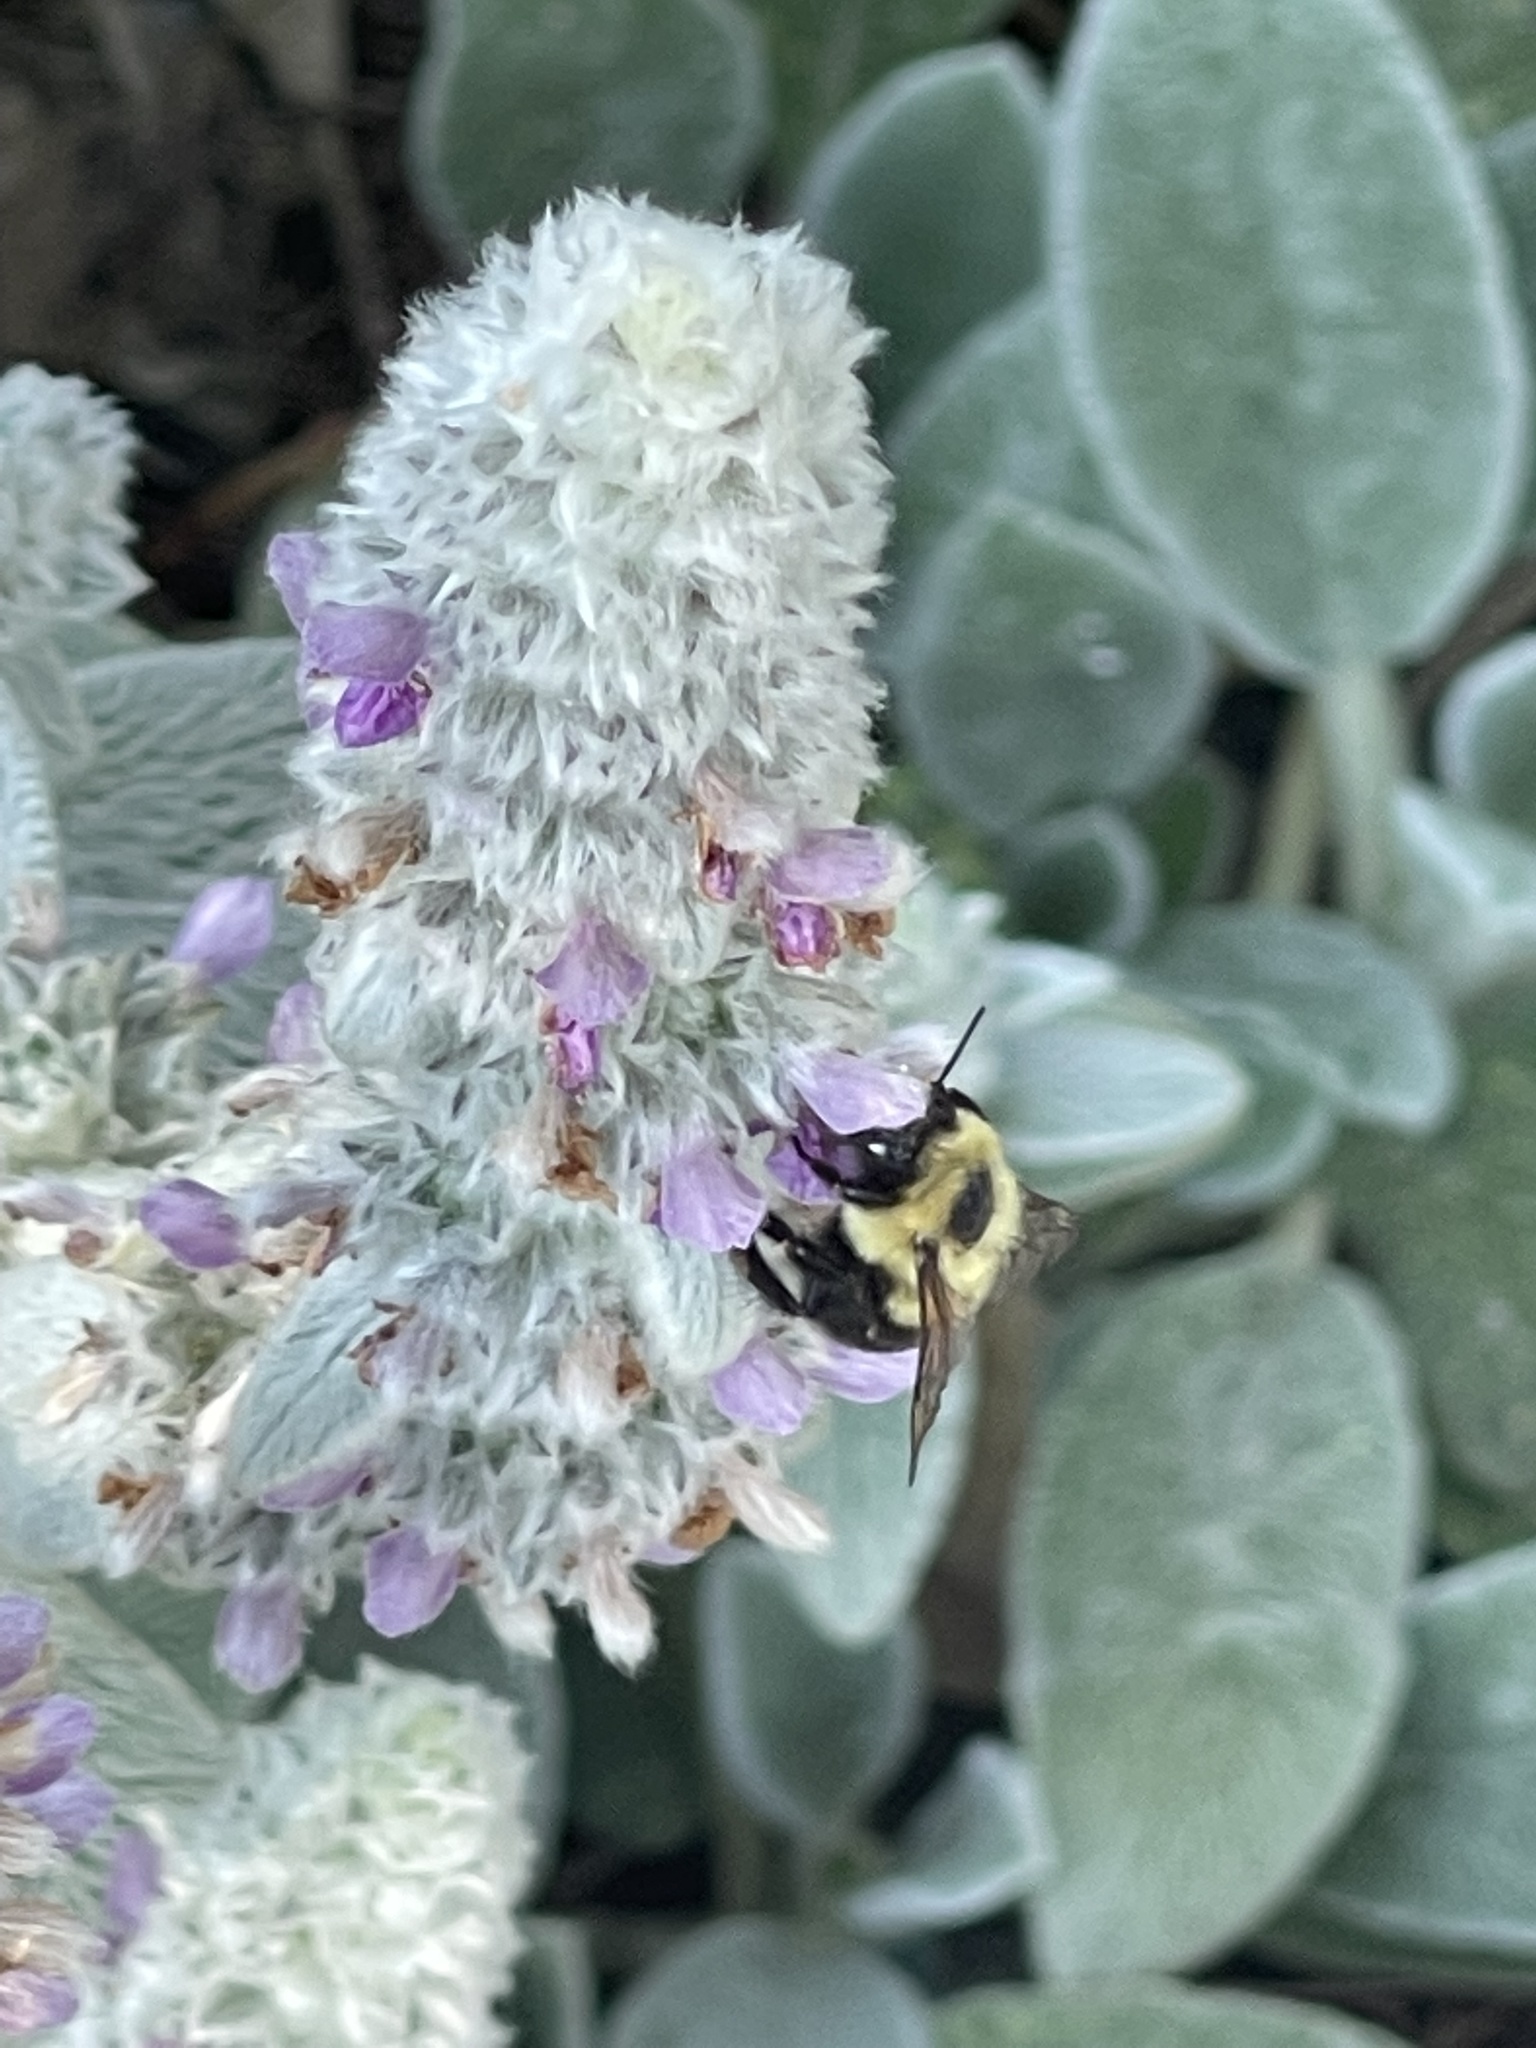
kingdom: Animalia
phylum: Arthropoda
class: Insecta
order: Hymenoptera
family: Apidae
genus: Bombus
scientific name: Bombus bimaculatus
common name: Two-spotted bumble bee
